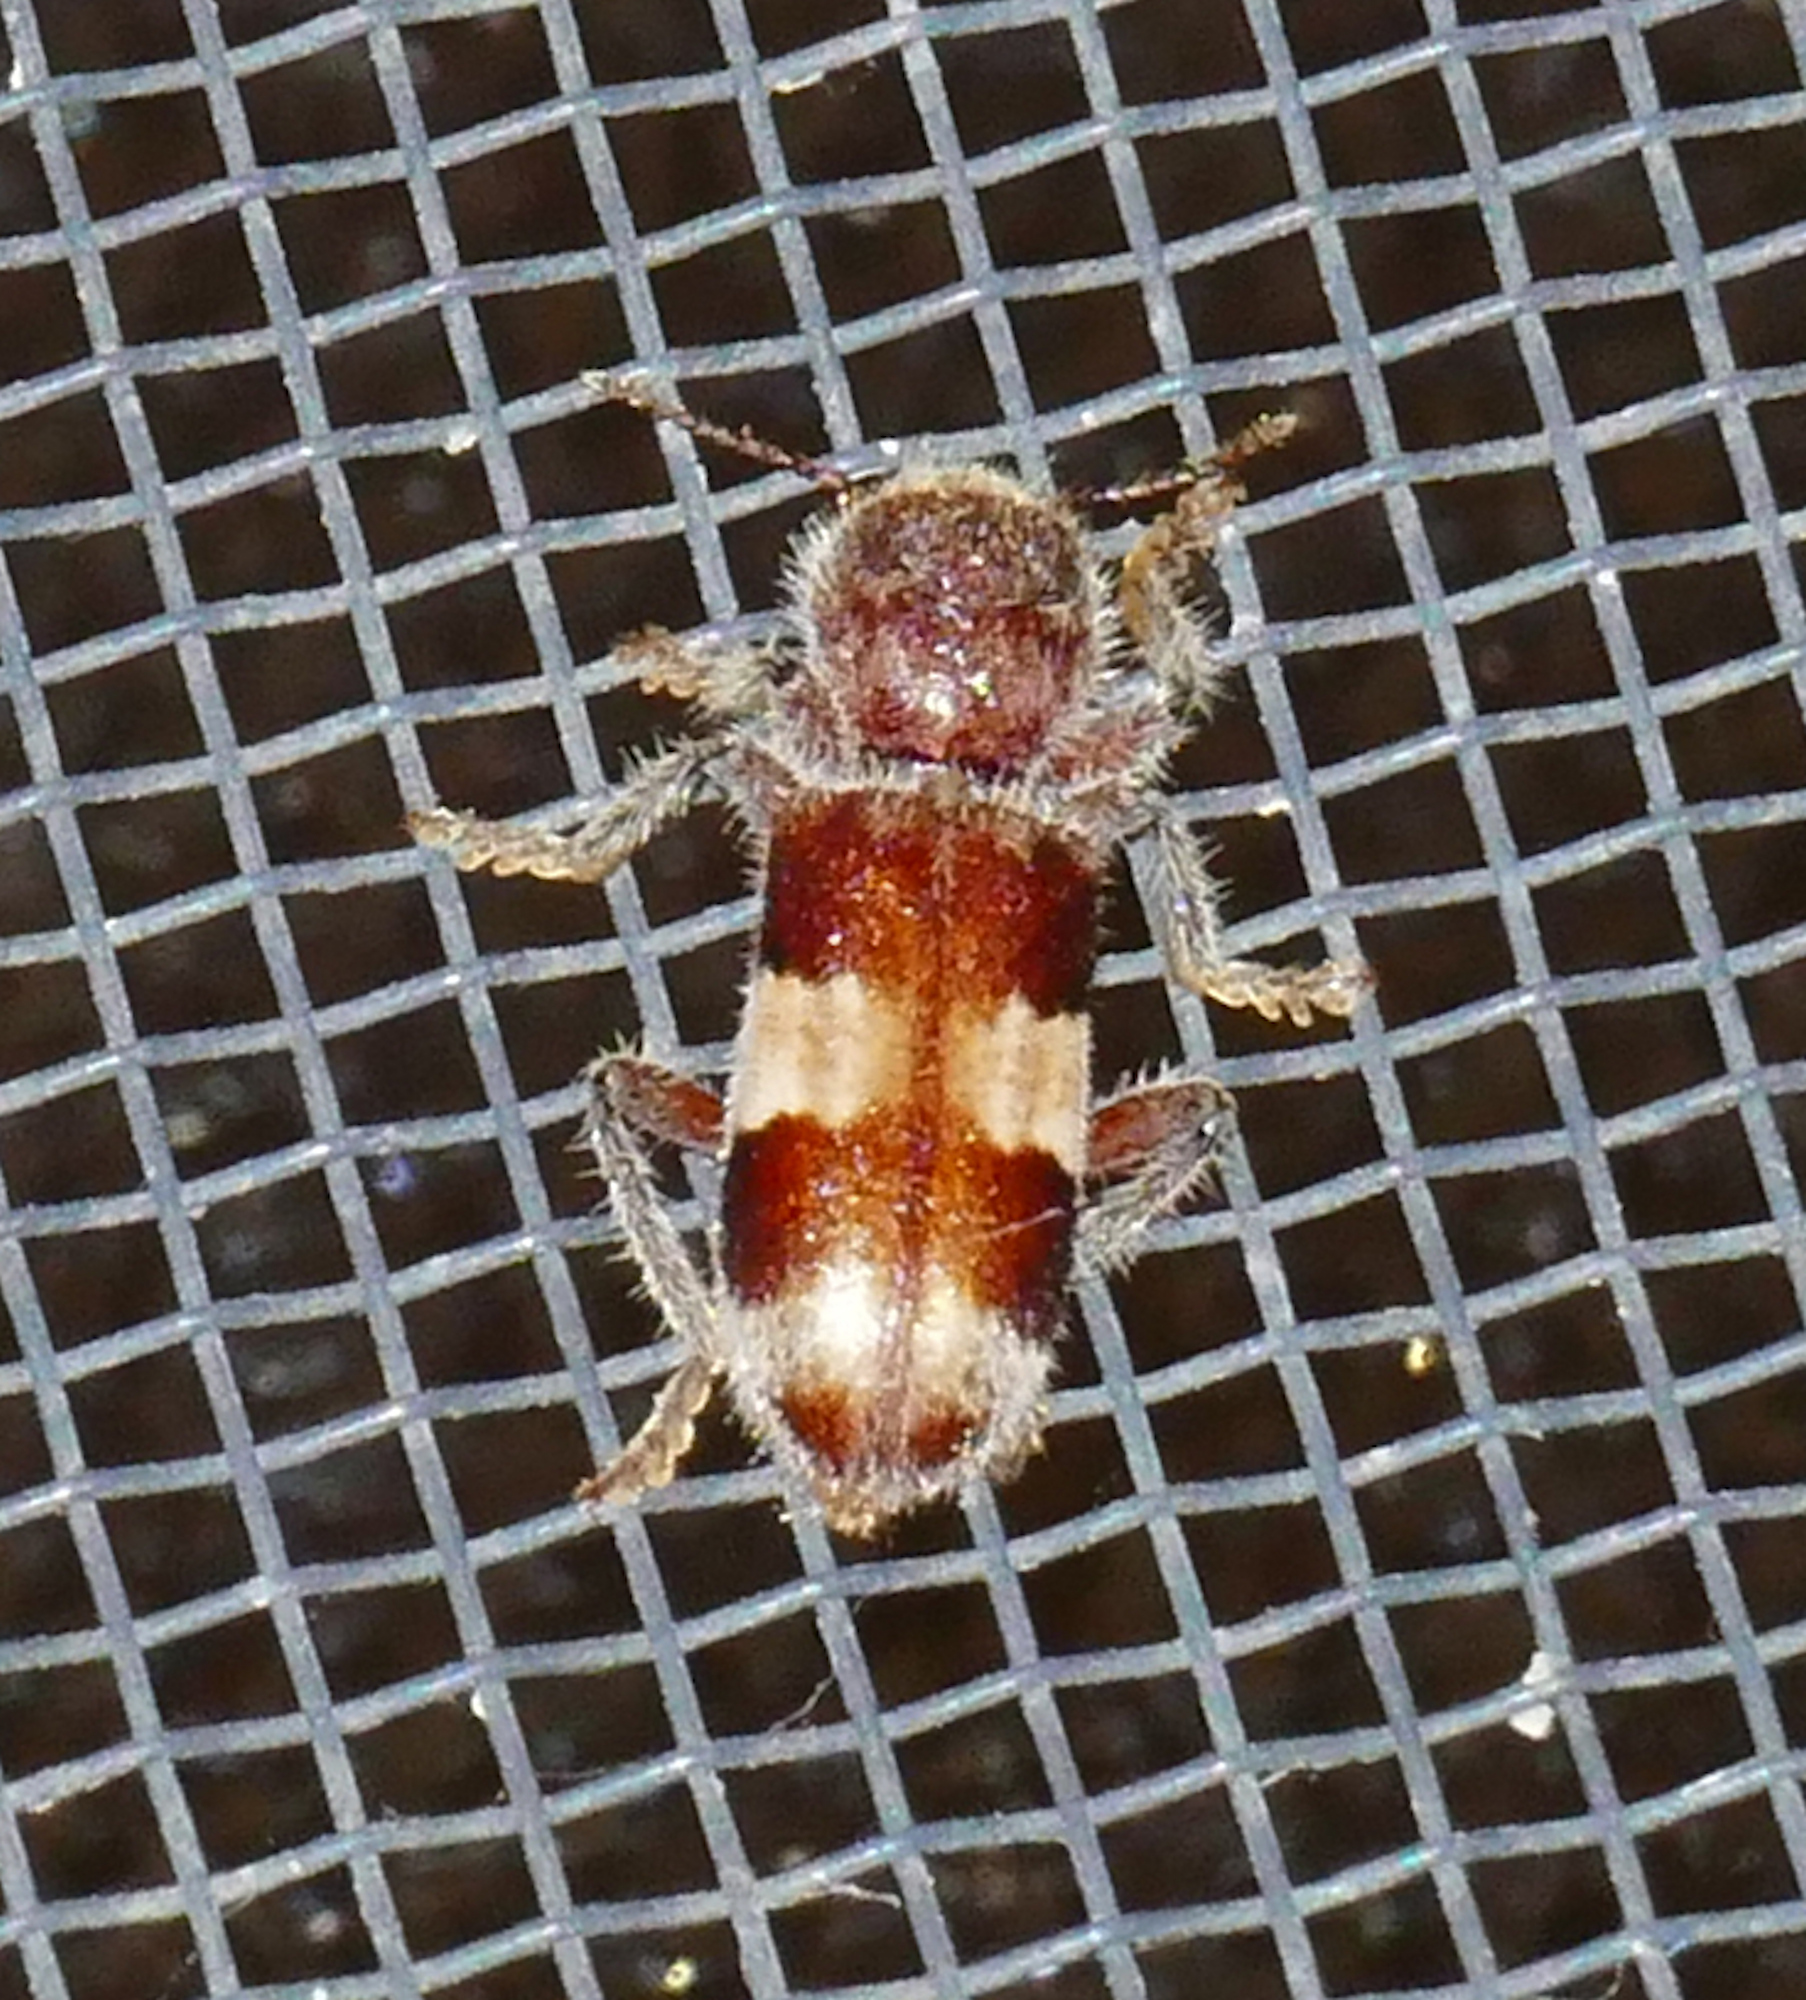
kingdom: Animalia
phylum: Arthropoda
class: Insecta
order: Coleoptera
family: Cleridae
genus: Enoclerus
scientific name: Enoclerus quadrisignatus
